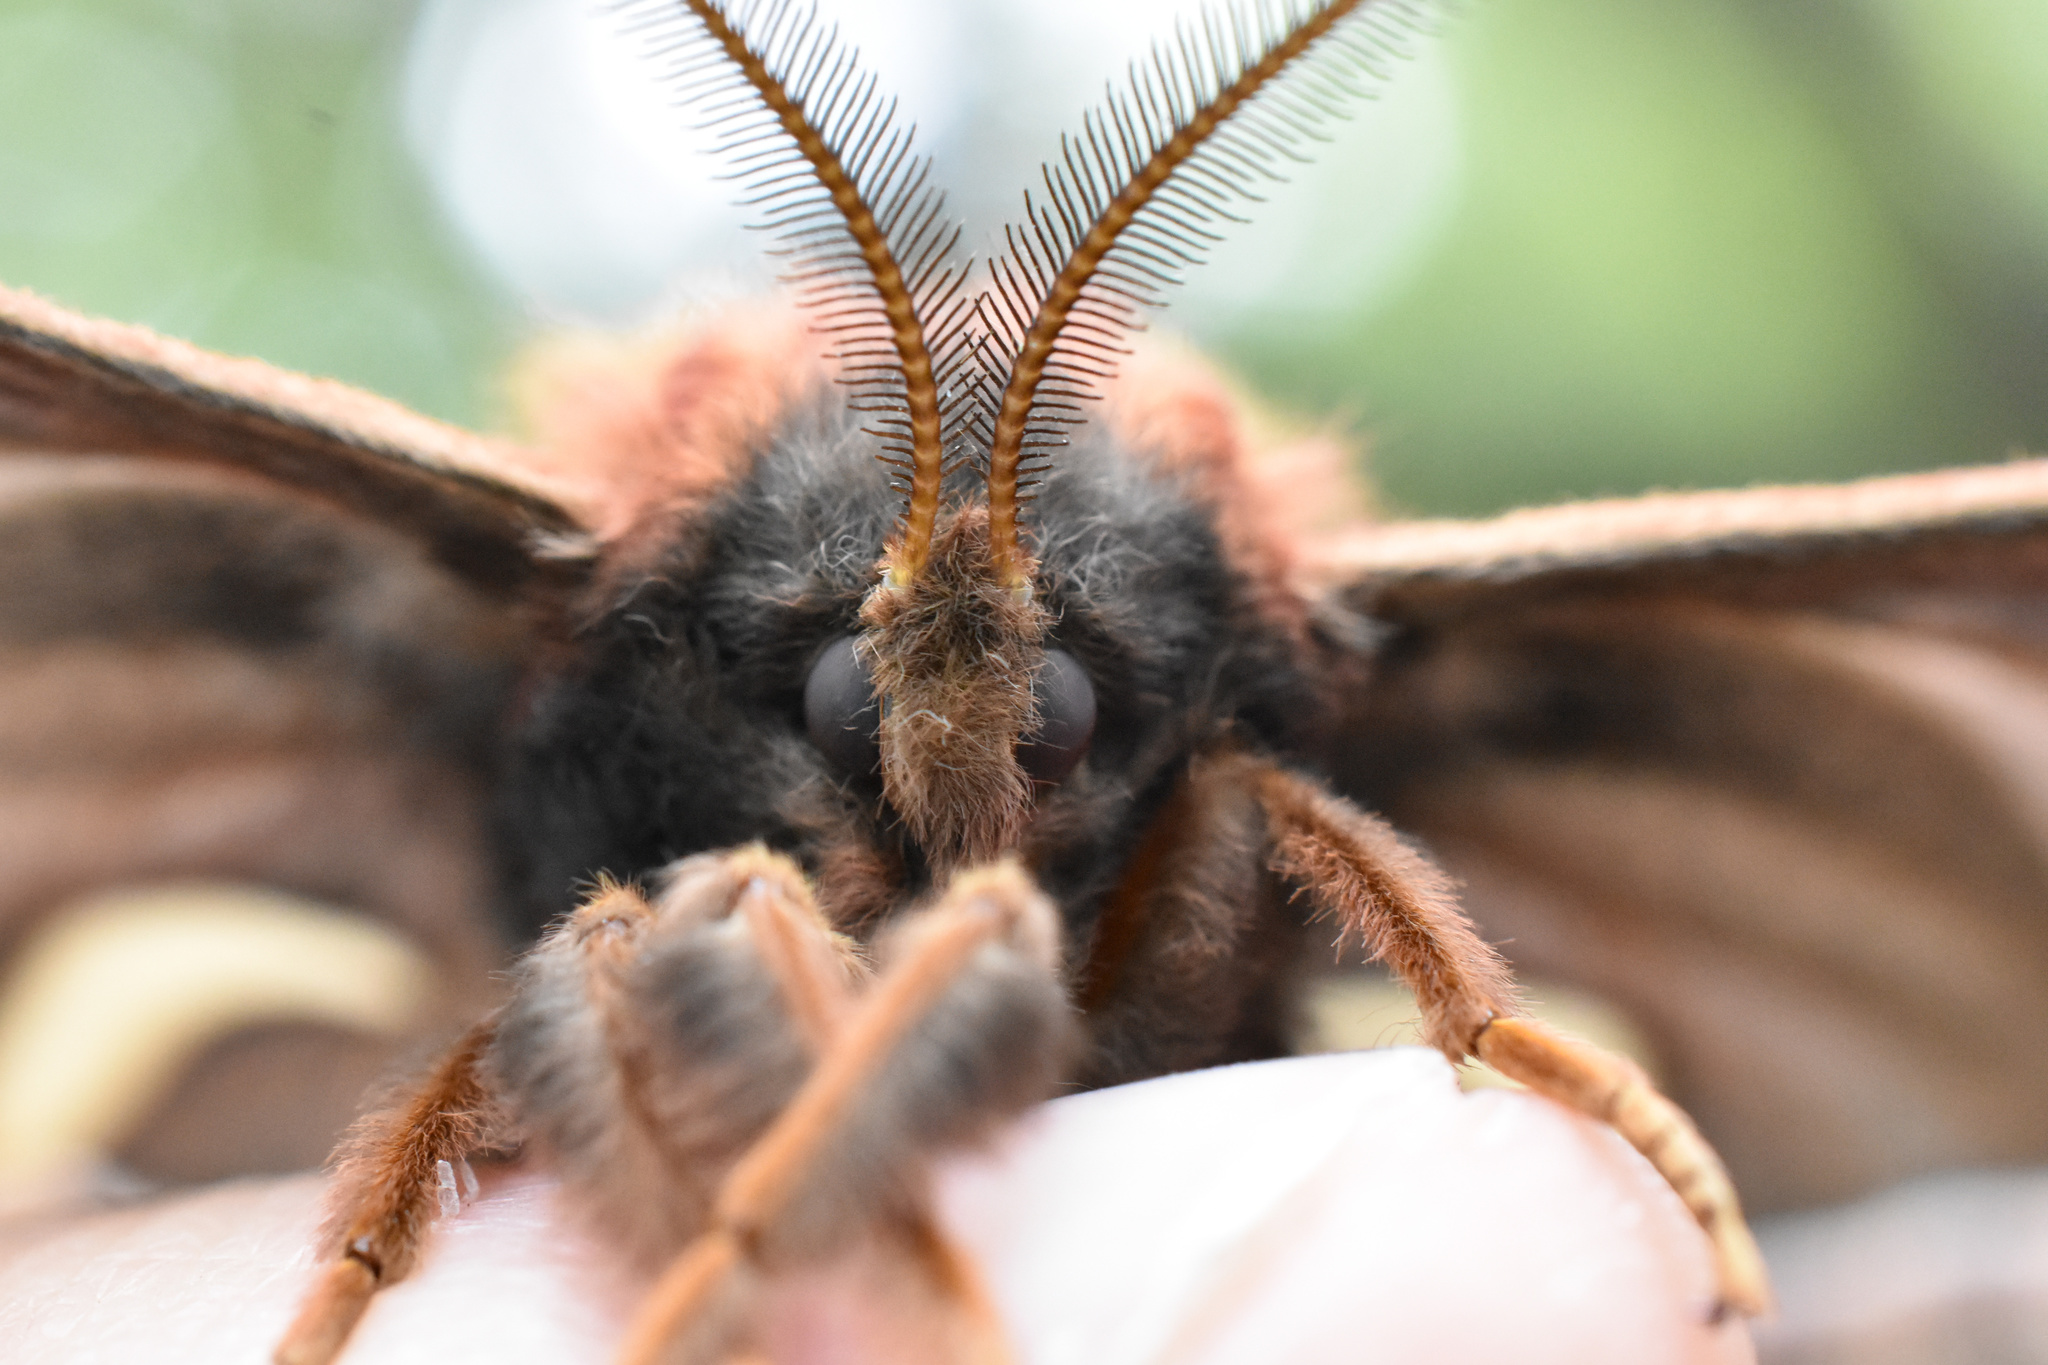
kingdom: Animalia
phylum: Arthropoda
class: Insecta
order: Lepidoptera
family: Saturniidae
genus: Hyalophora
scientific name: Hyalophora euryalus
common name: Ceanothus silkmoth
